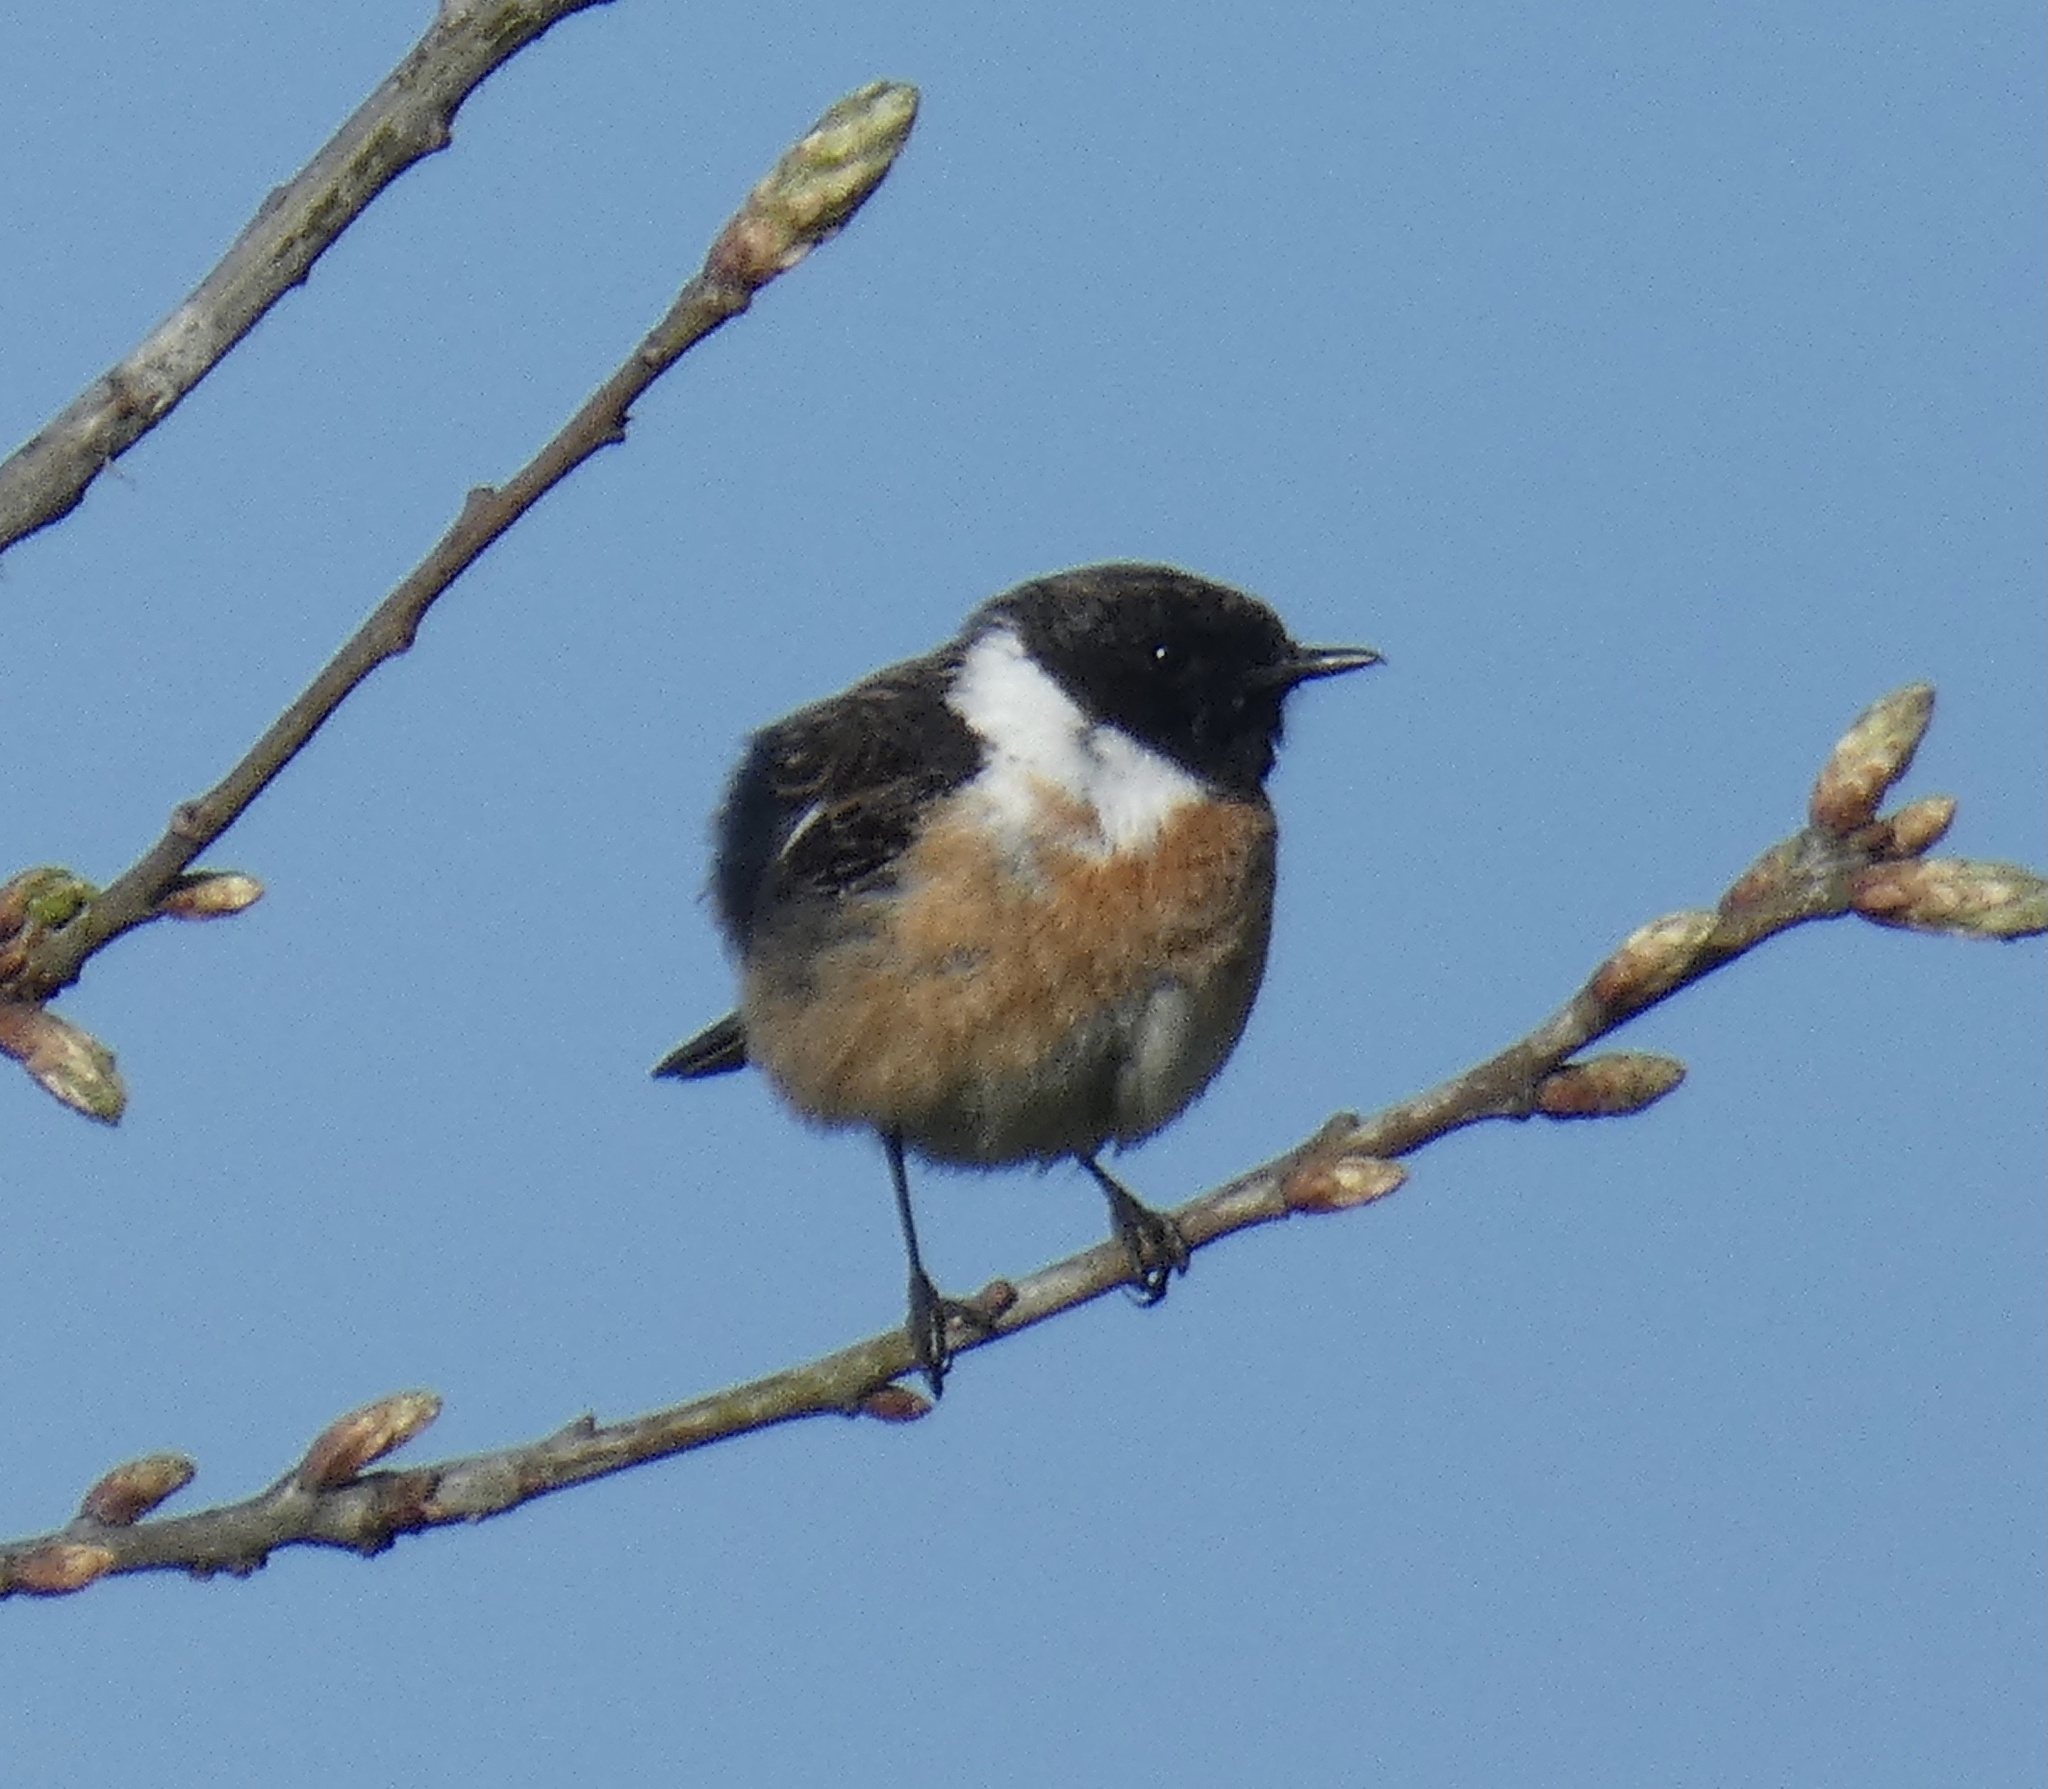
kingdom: Animalia
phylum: Chordata
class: Aves
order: Passeriformes
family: Muscicapidae
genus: Saxicola
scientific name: Saxicola rubicola
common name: European stonechat
